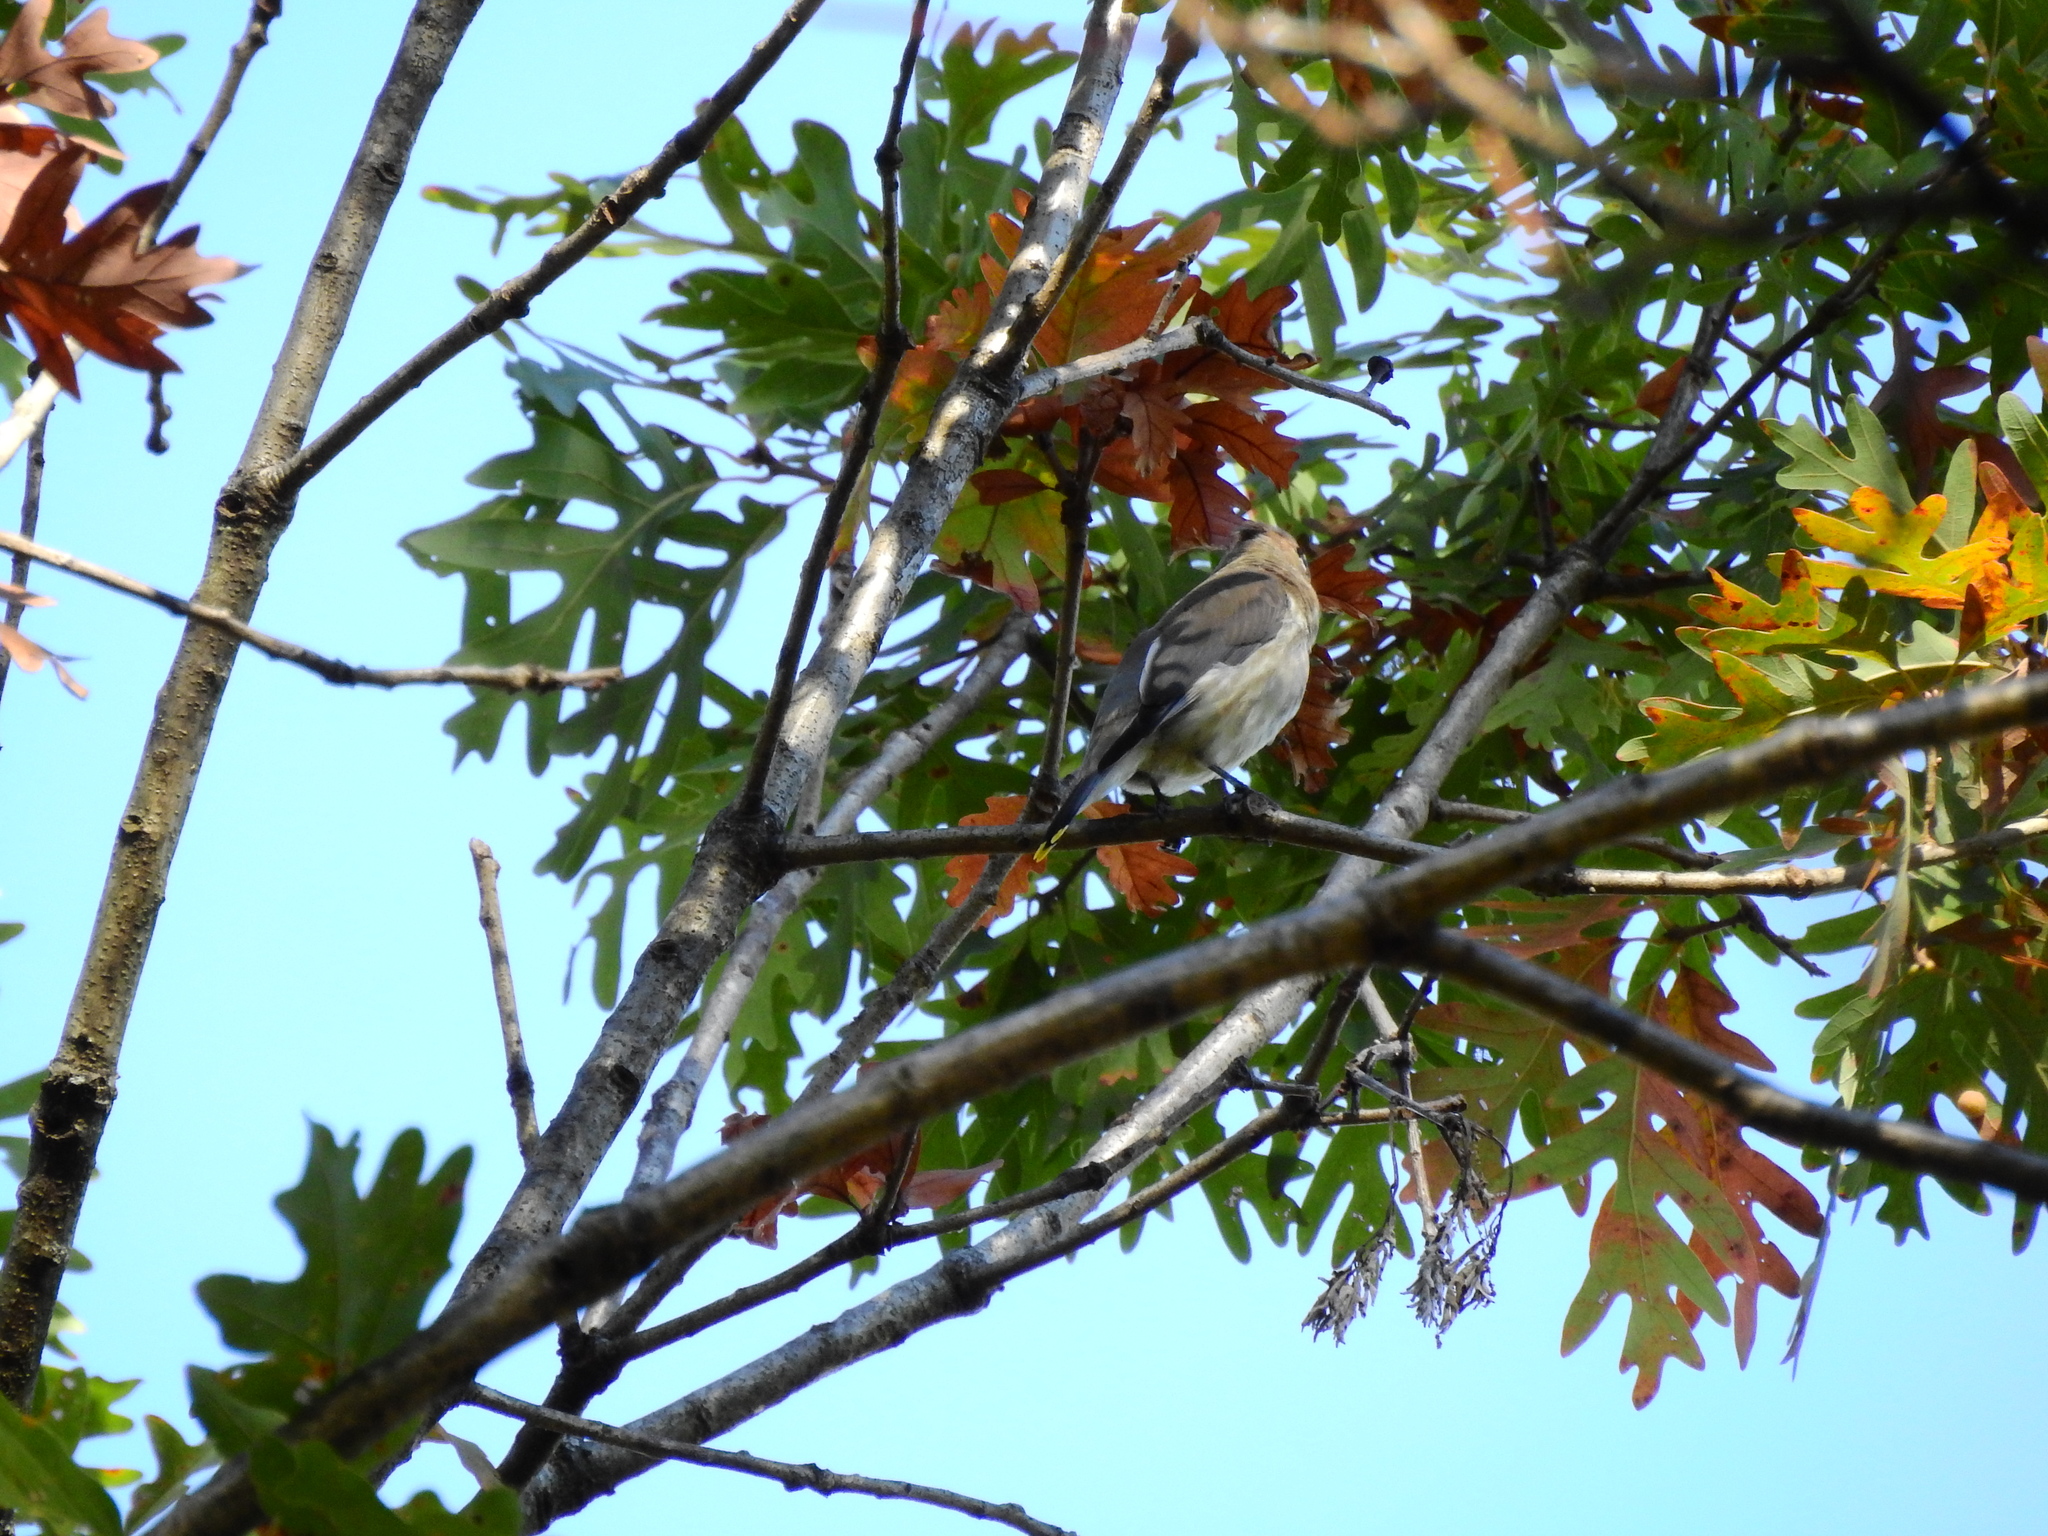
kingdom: Animalia
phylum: Chordata
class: Aves
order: Passeriformes
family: Bombycillidae
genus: Bombycilla
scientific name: Bombycilla cedrorum
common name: Cedar waxwing
